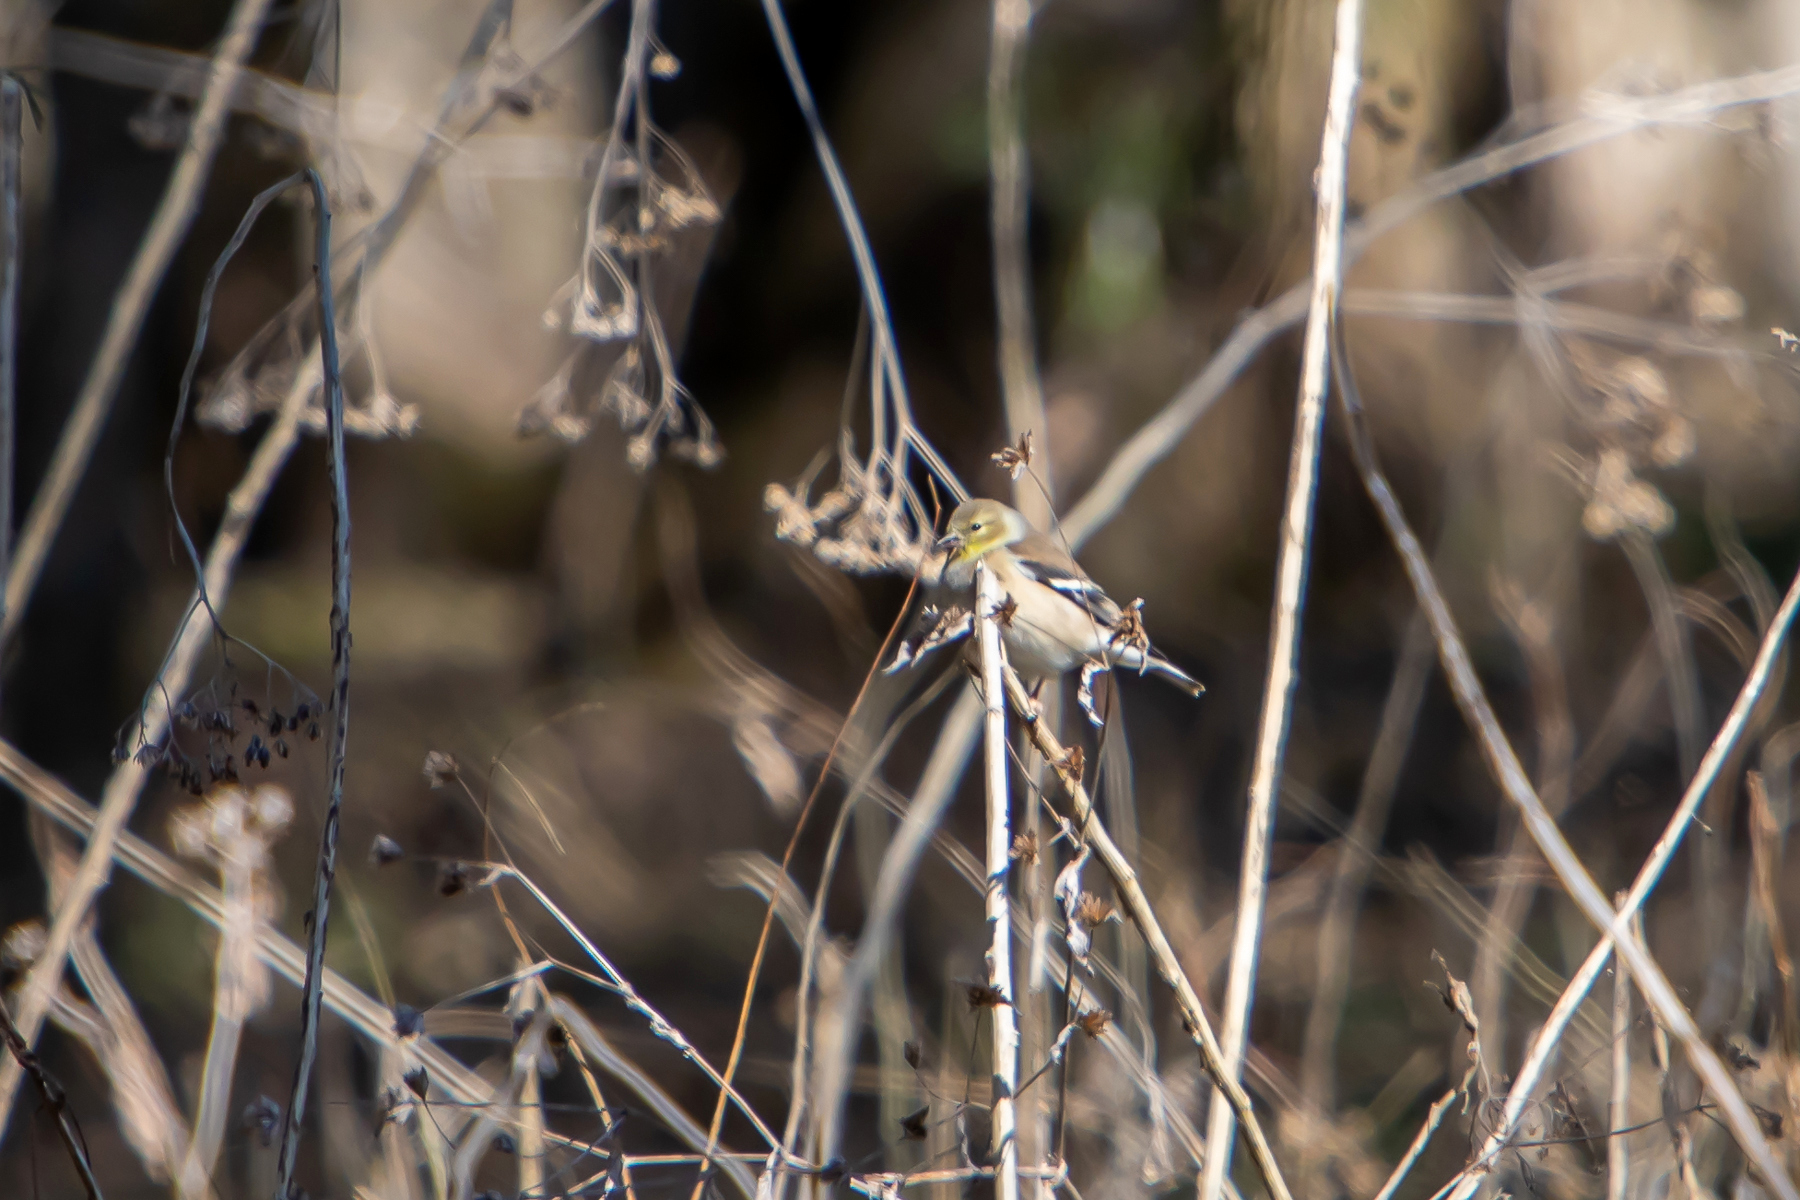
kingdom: Animalia
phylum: Chordata
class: Aves
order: Passeriformes
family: Fringillidae
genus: Spinus
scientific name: Spinus tristis
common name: American goldfinch
